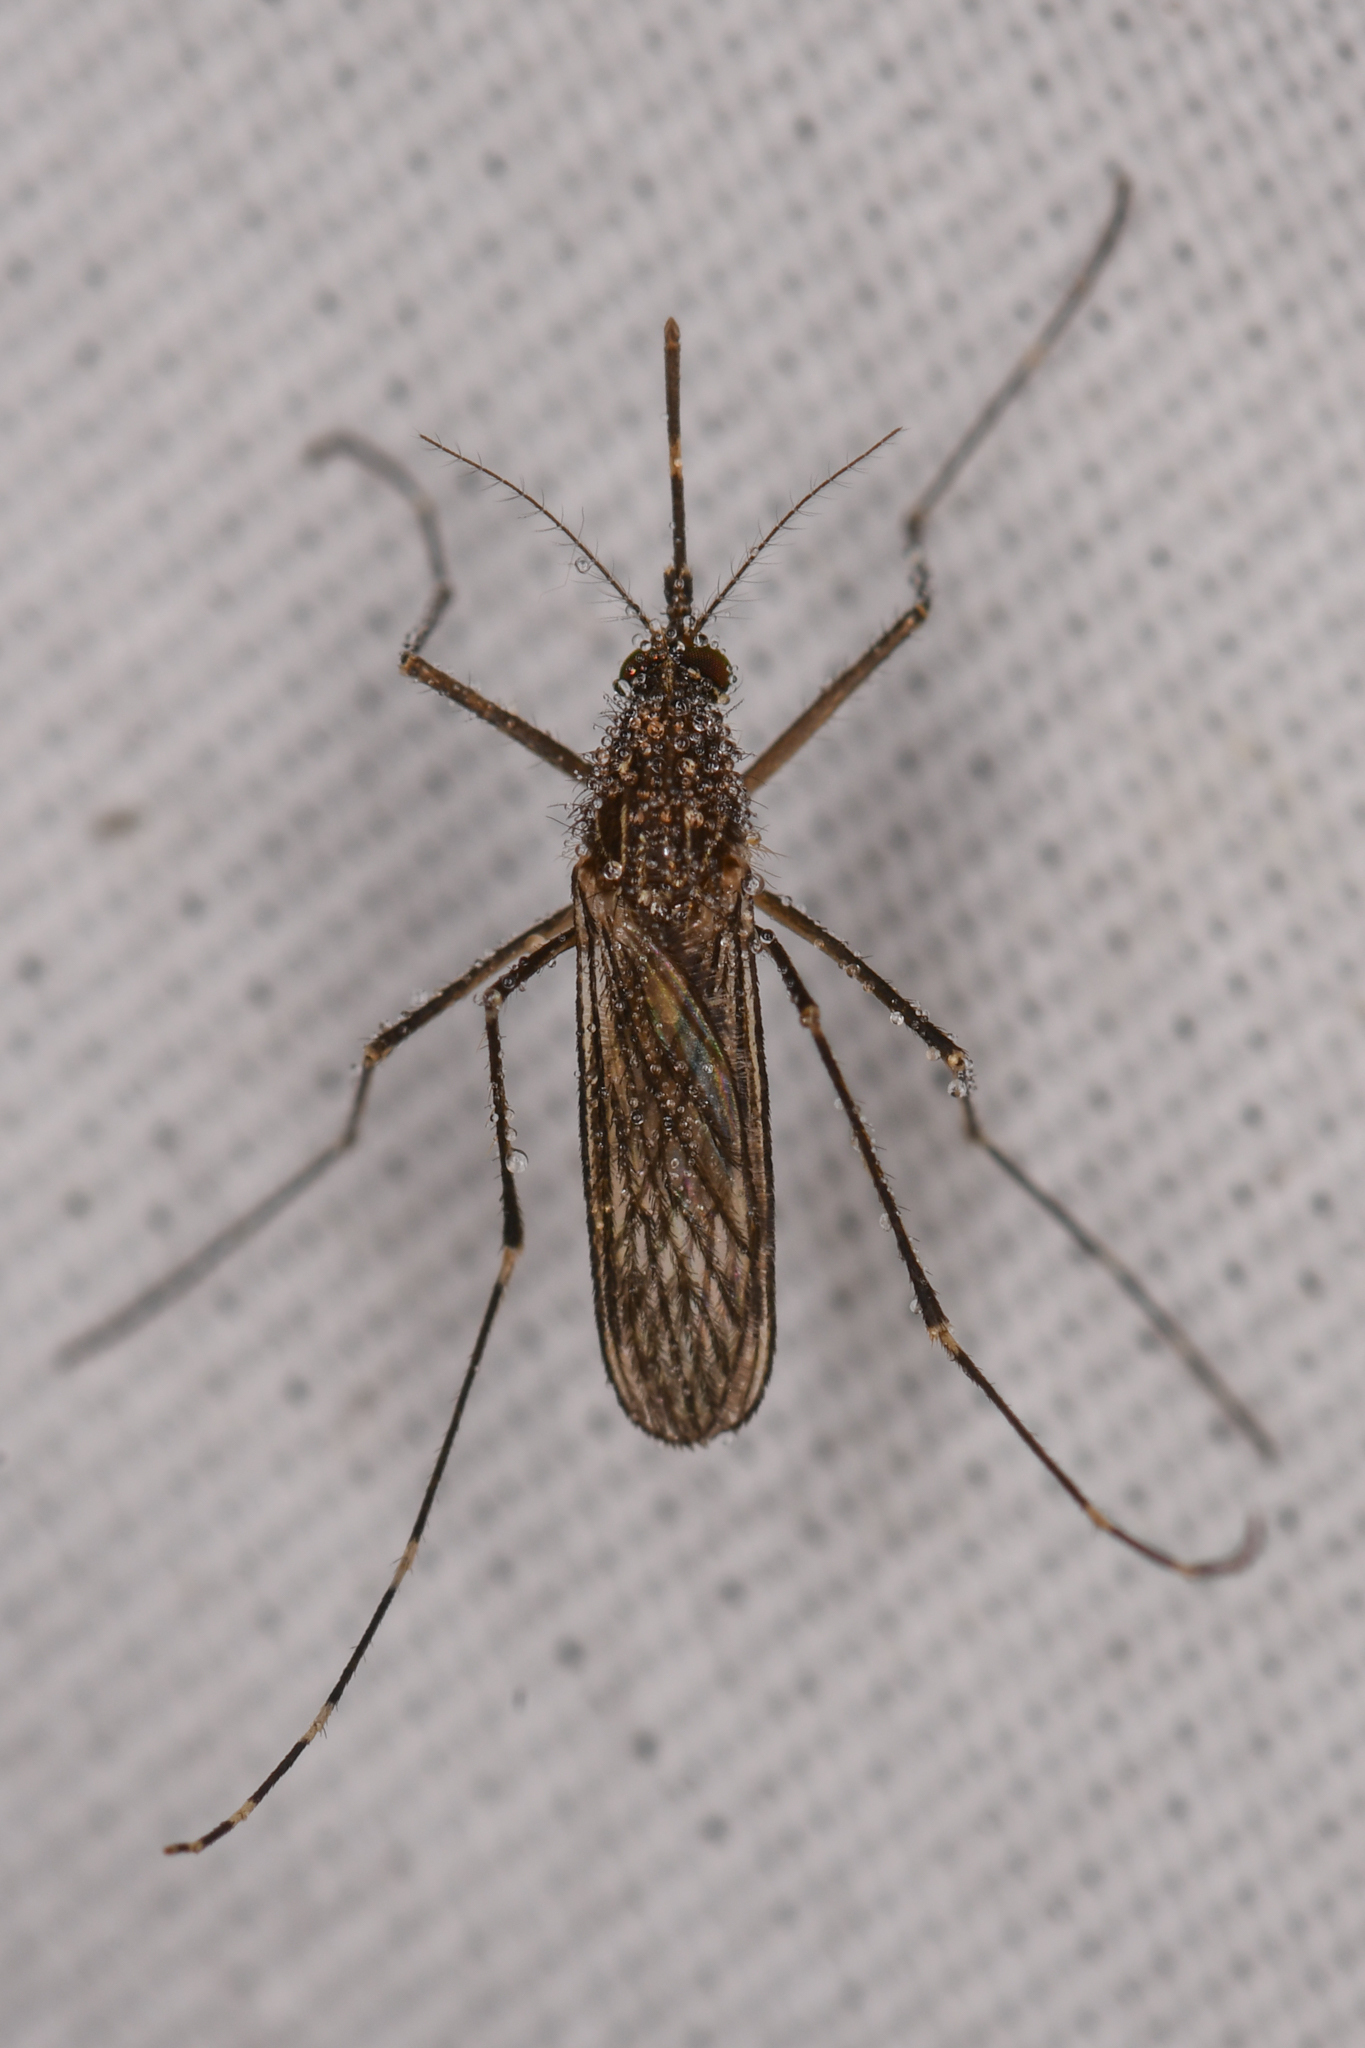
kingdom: Animalia
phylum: Arthropoda
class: Insecta
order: Diptera
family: Culicidae
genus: Culex
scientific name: Culex tarsalis
